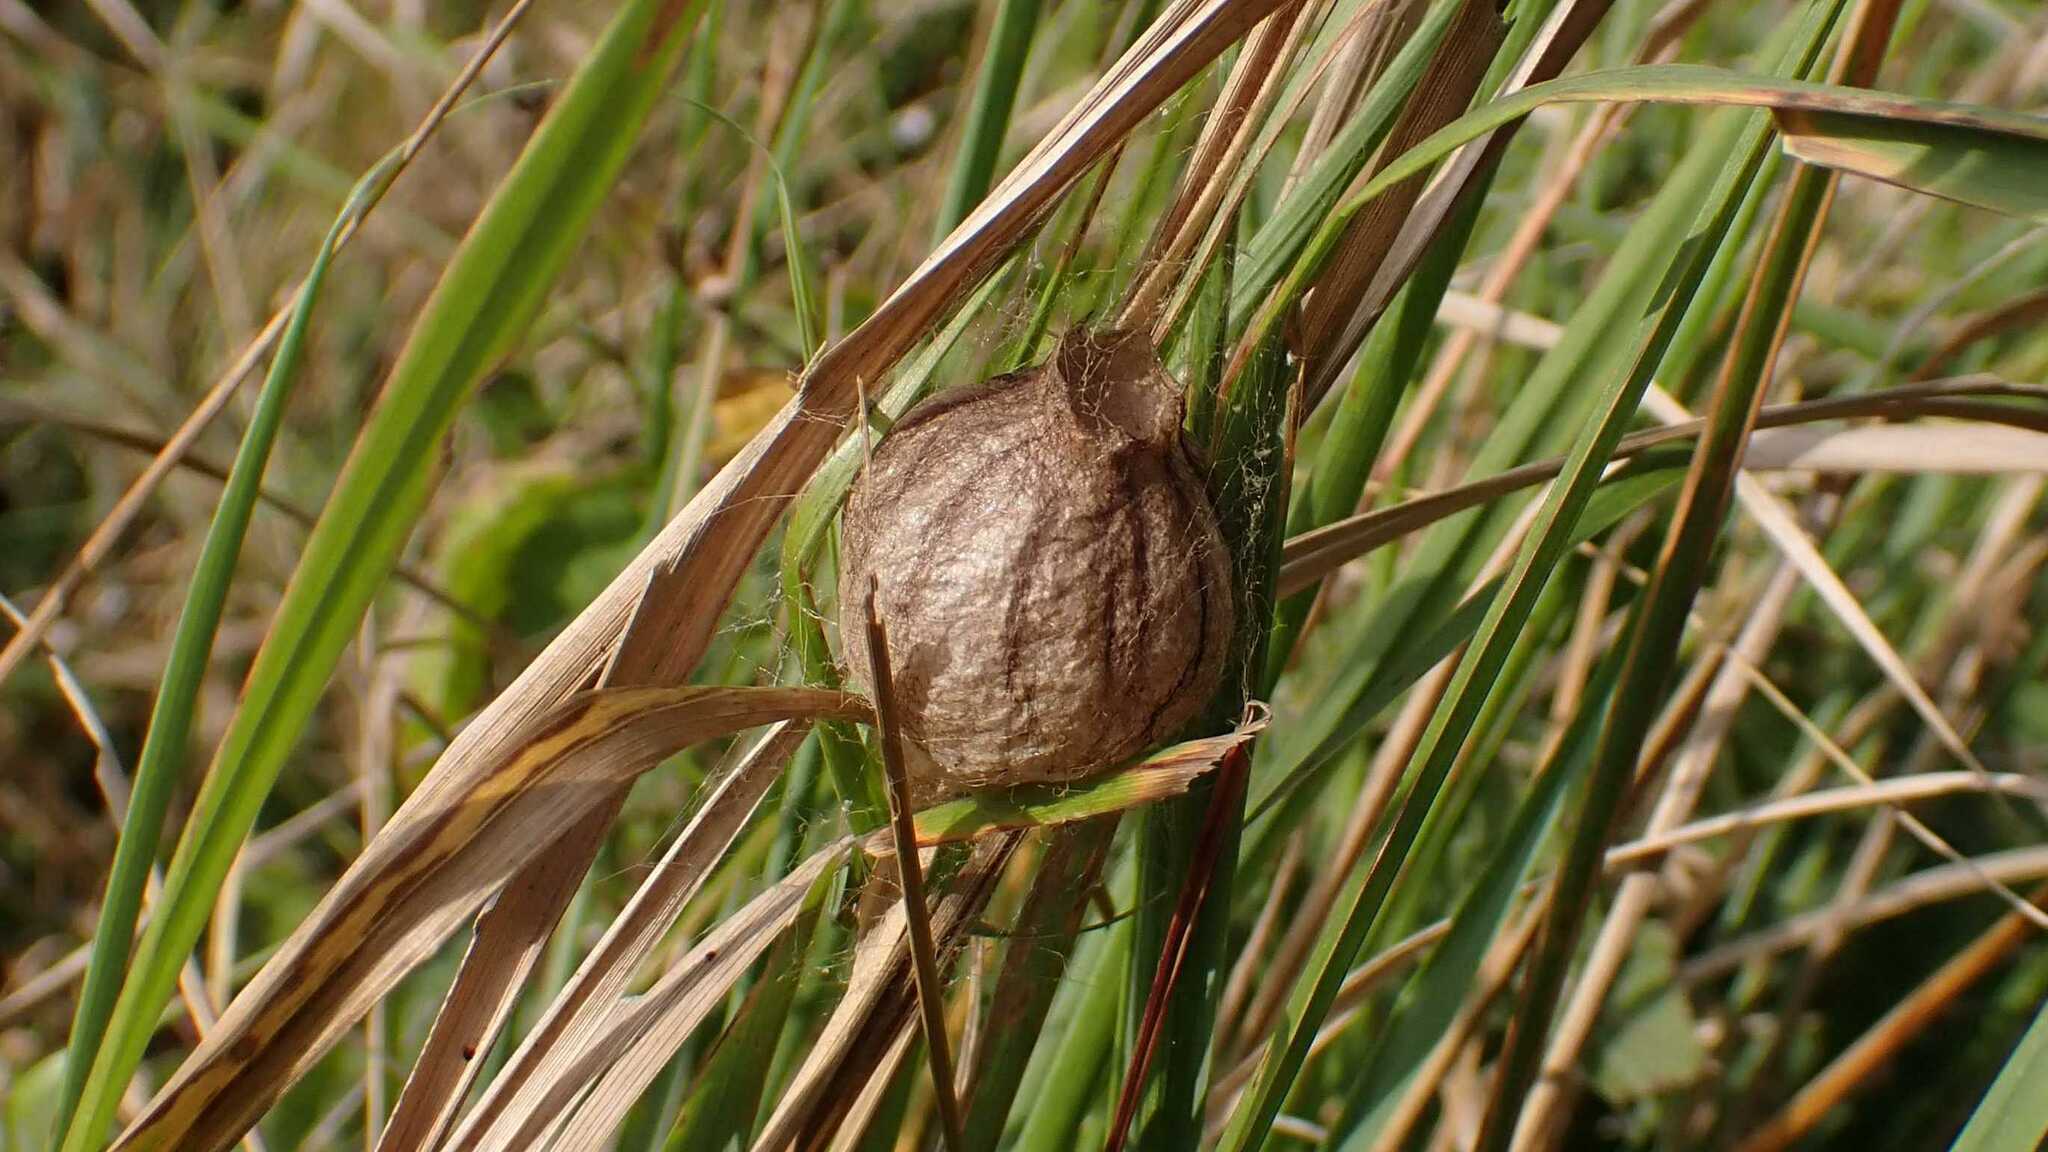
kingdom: Animalia
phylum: Arthropoda
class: Arachnida
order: Araneae
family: Araneidae
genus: Argiope
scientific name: Argiope bruennichi
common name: Wasp spider
